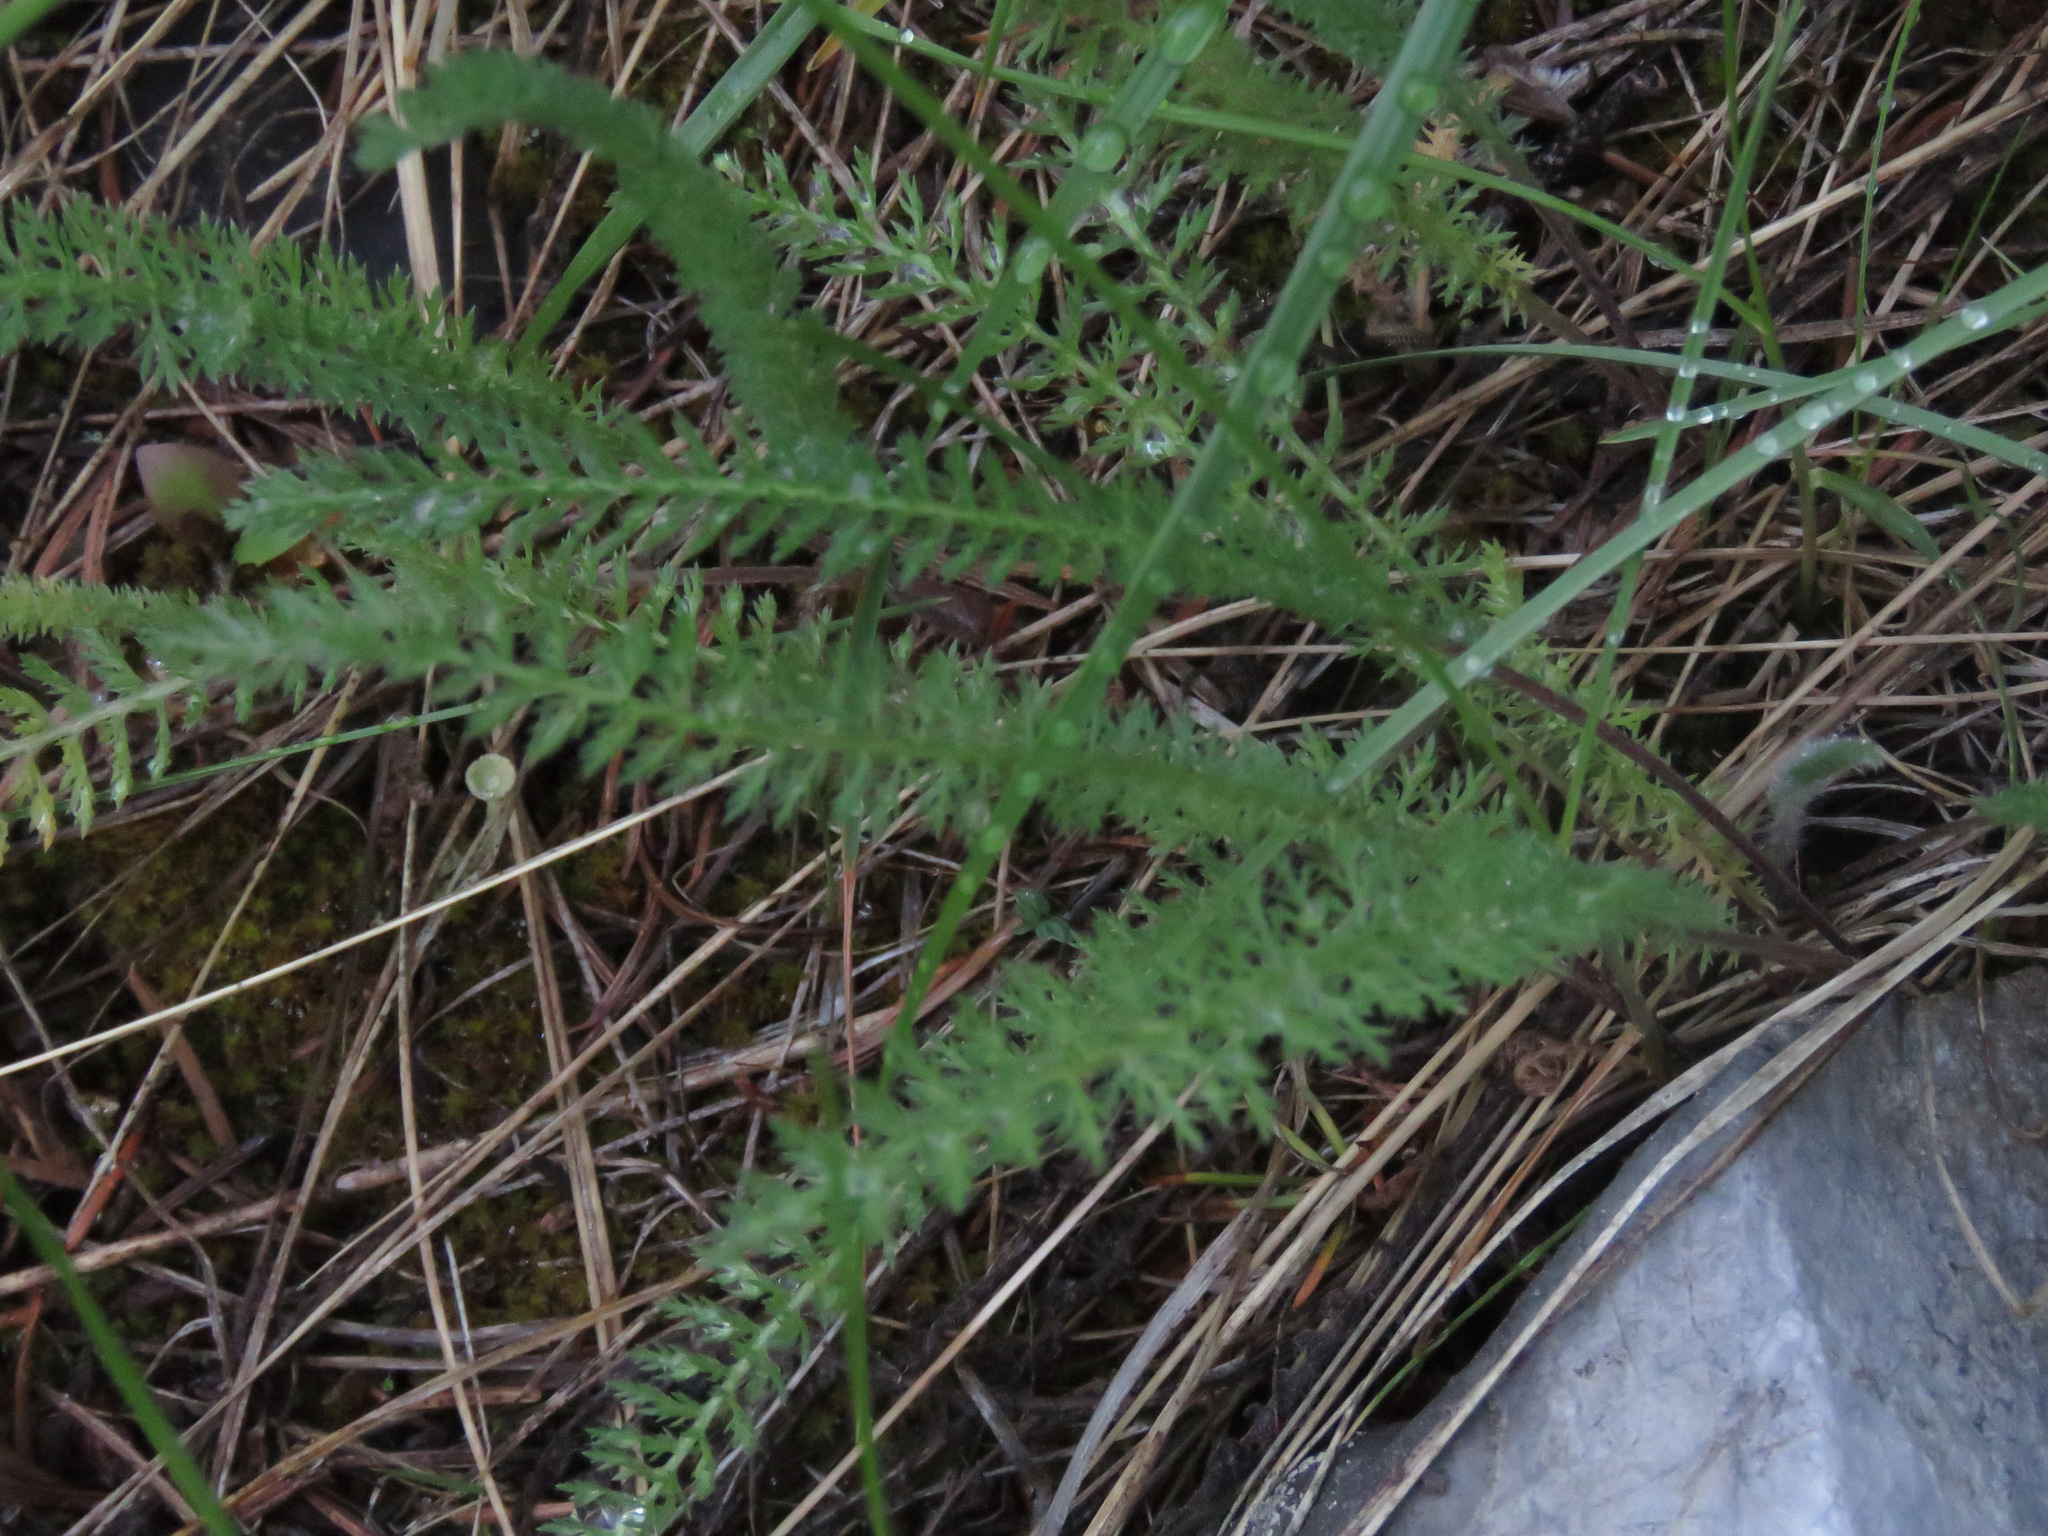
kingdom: Plantae
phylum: Tracheophyta
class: Magnoliopsida
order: Asterales
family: Asteraceae
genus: Achillea
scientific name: Achillea millefolium
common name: Yarrow
